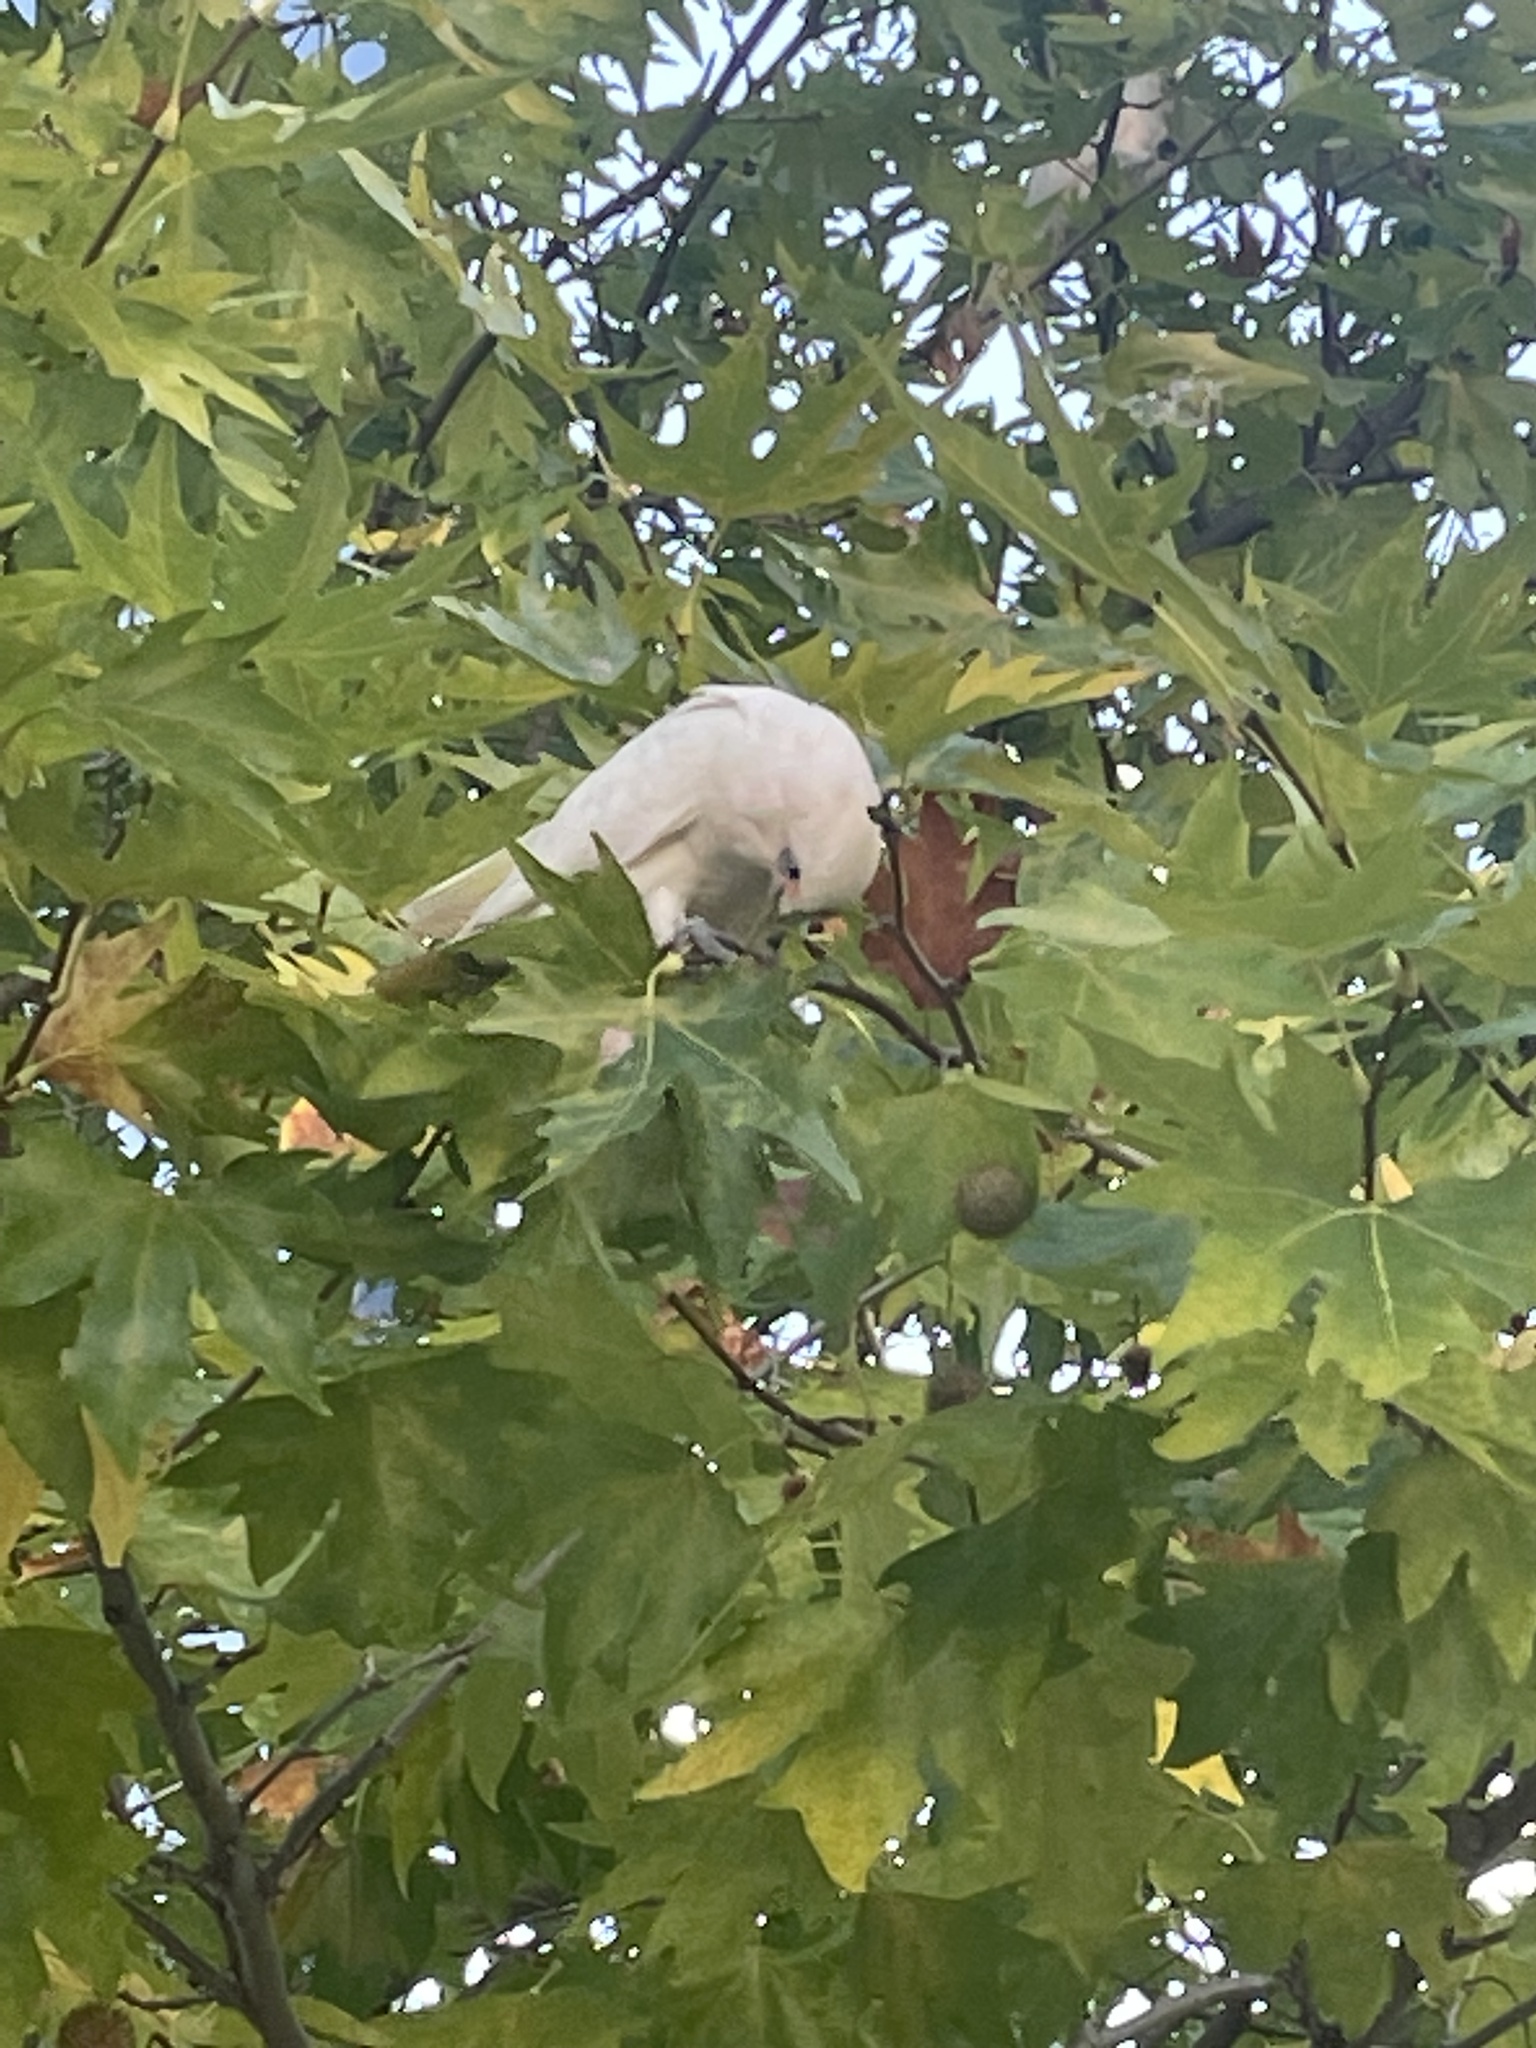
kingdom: Animalia
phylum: Chordata
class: Aves
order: Psittaciformes
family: Psittacidae
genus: Cacatua
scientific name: Cacatua sanguinea
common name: Little corella
